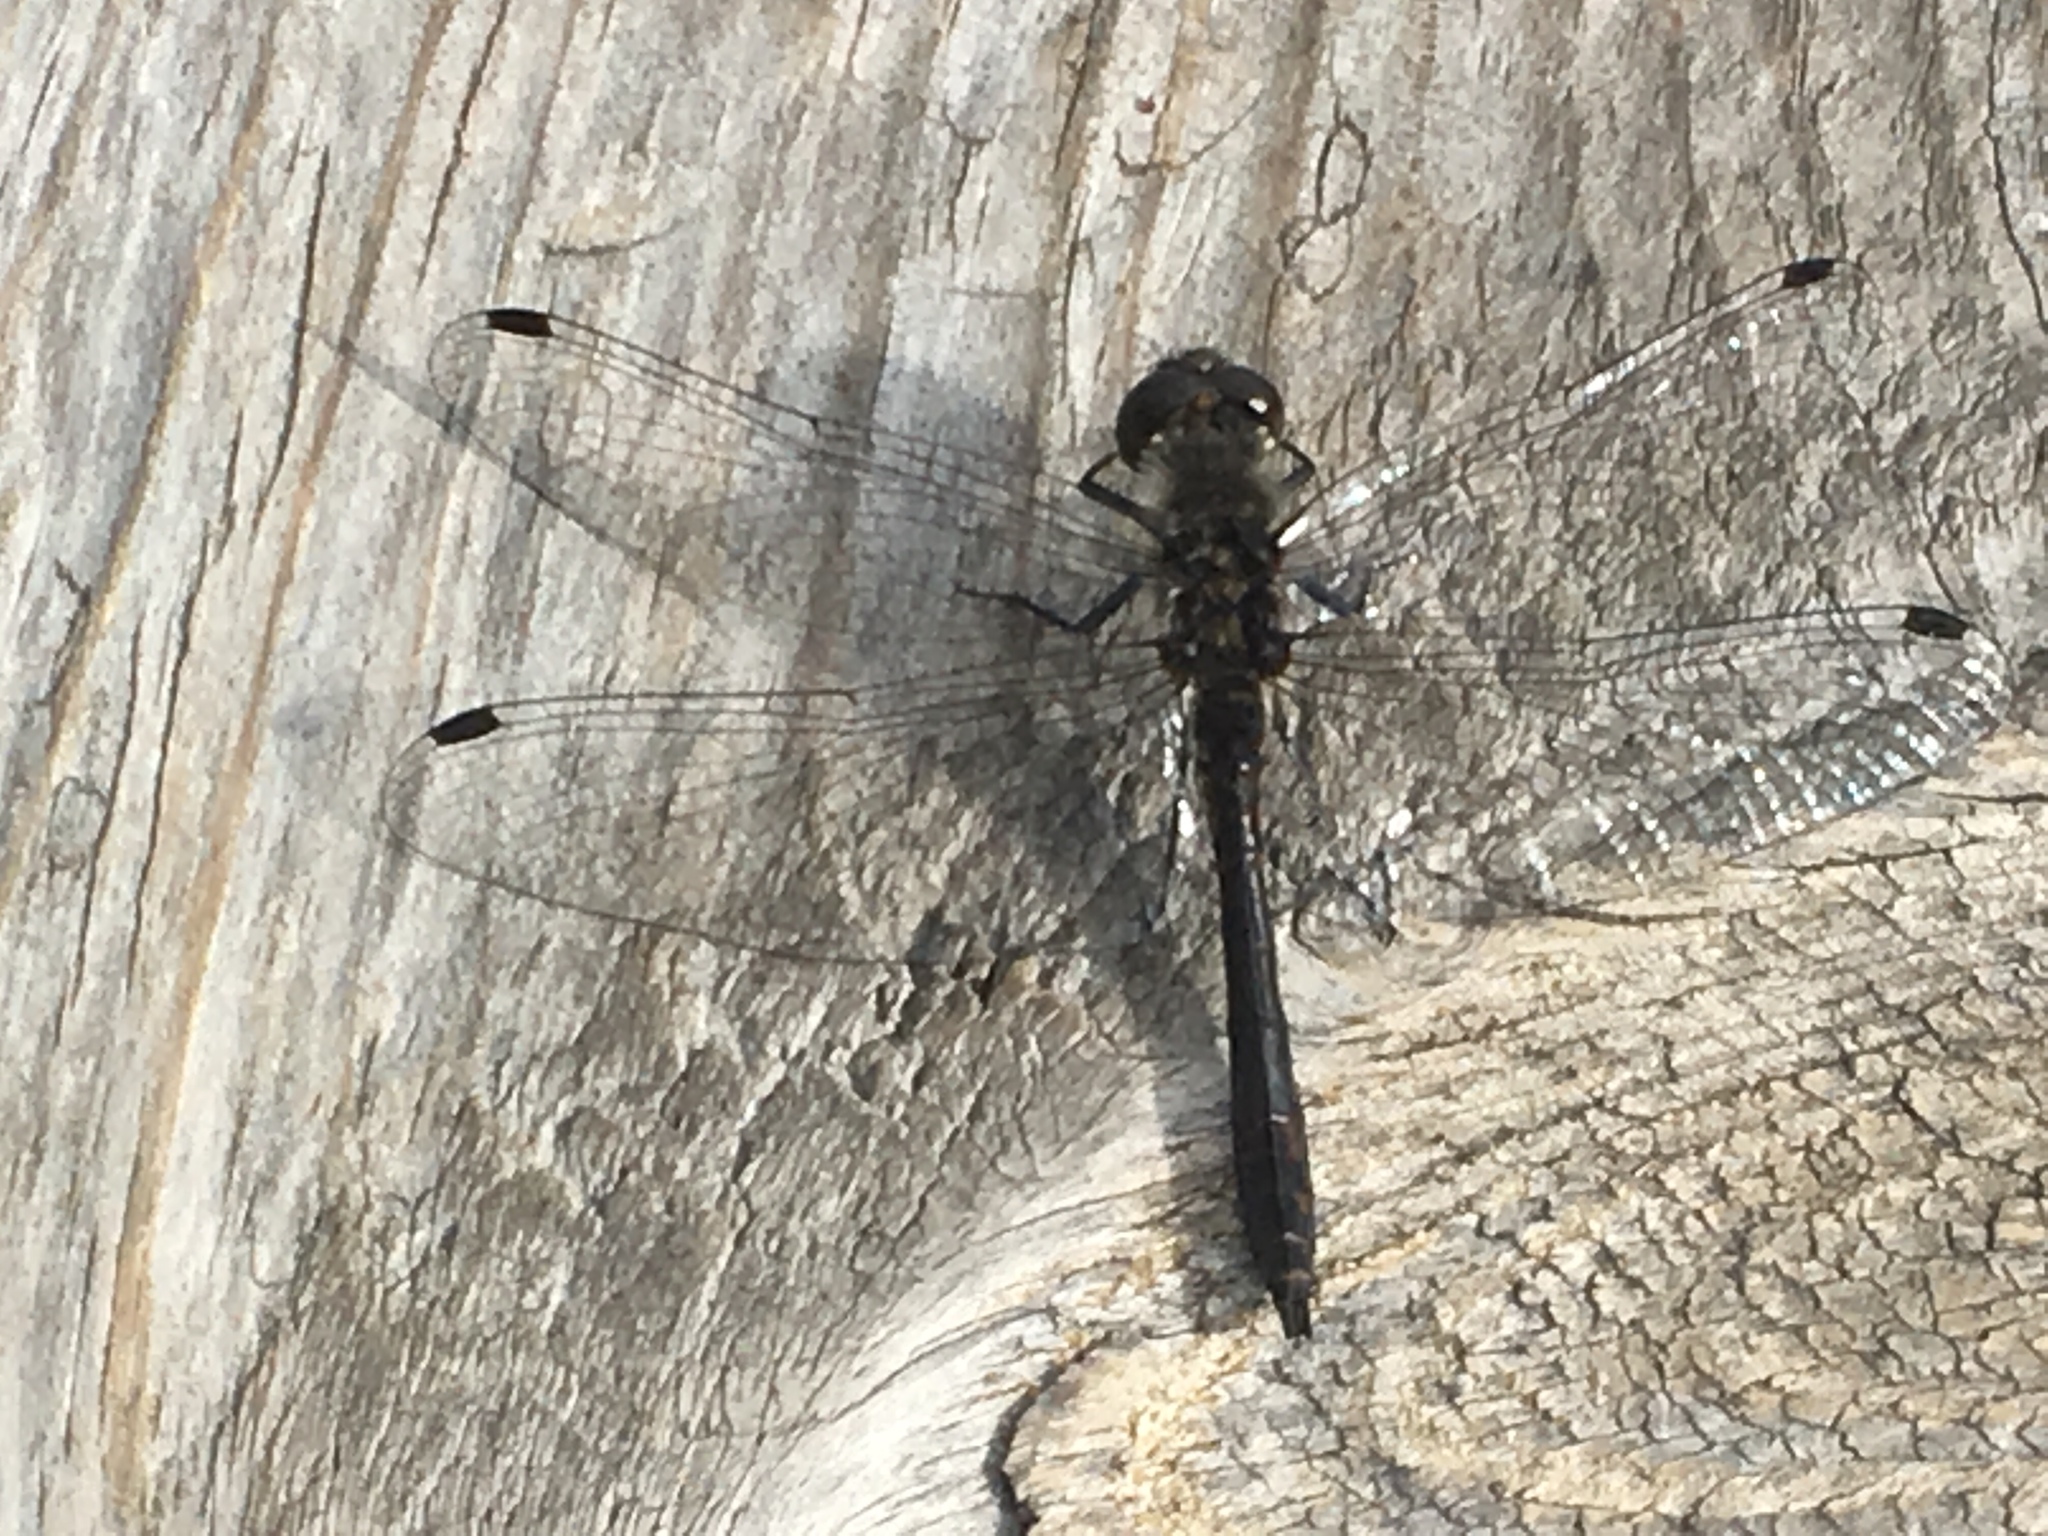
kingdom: Animalia
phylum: Arthropoda
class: Insecta
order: Odonata
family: Libellulidae
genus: Sympetrum
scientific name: Sympetrum danae
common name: Black darter
